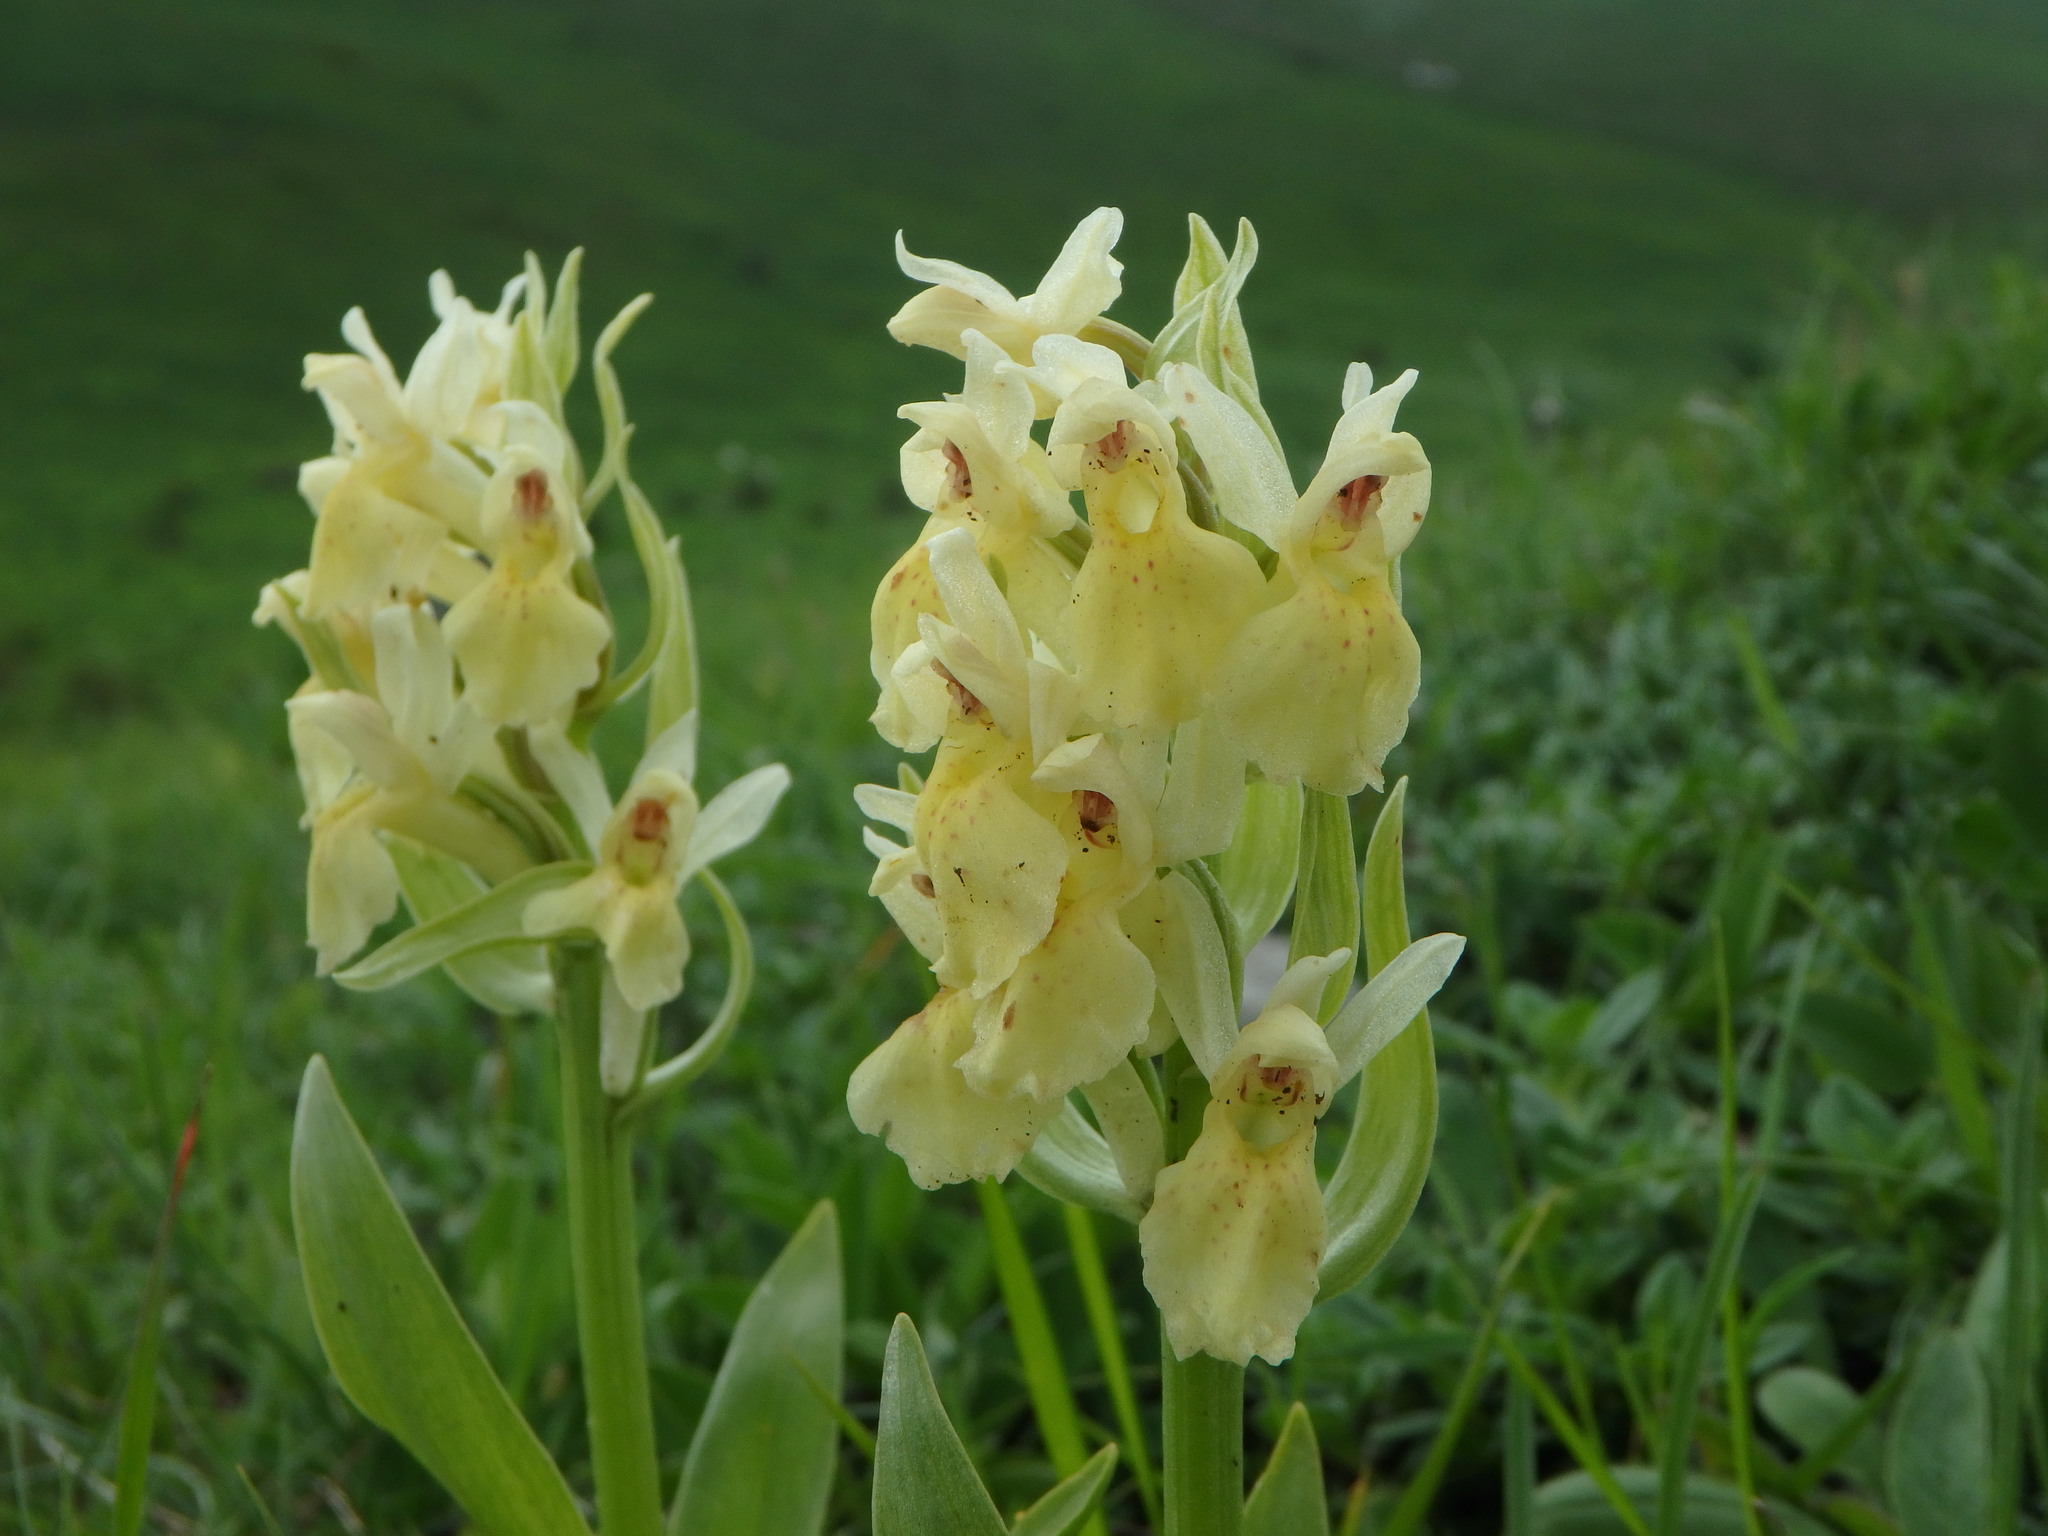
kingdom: Plantae
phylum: Tracheophyta
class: Liliopsida
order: Asparagales
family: Orchidaceae
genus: Dactylorhiza
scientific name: Dactylorhiza sambucina
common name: Elder-flowered orchid
